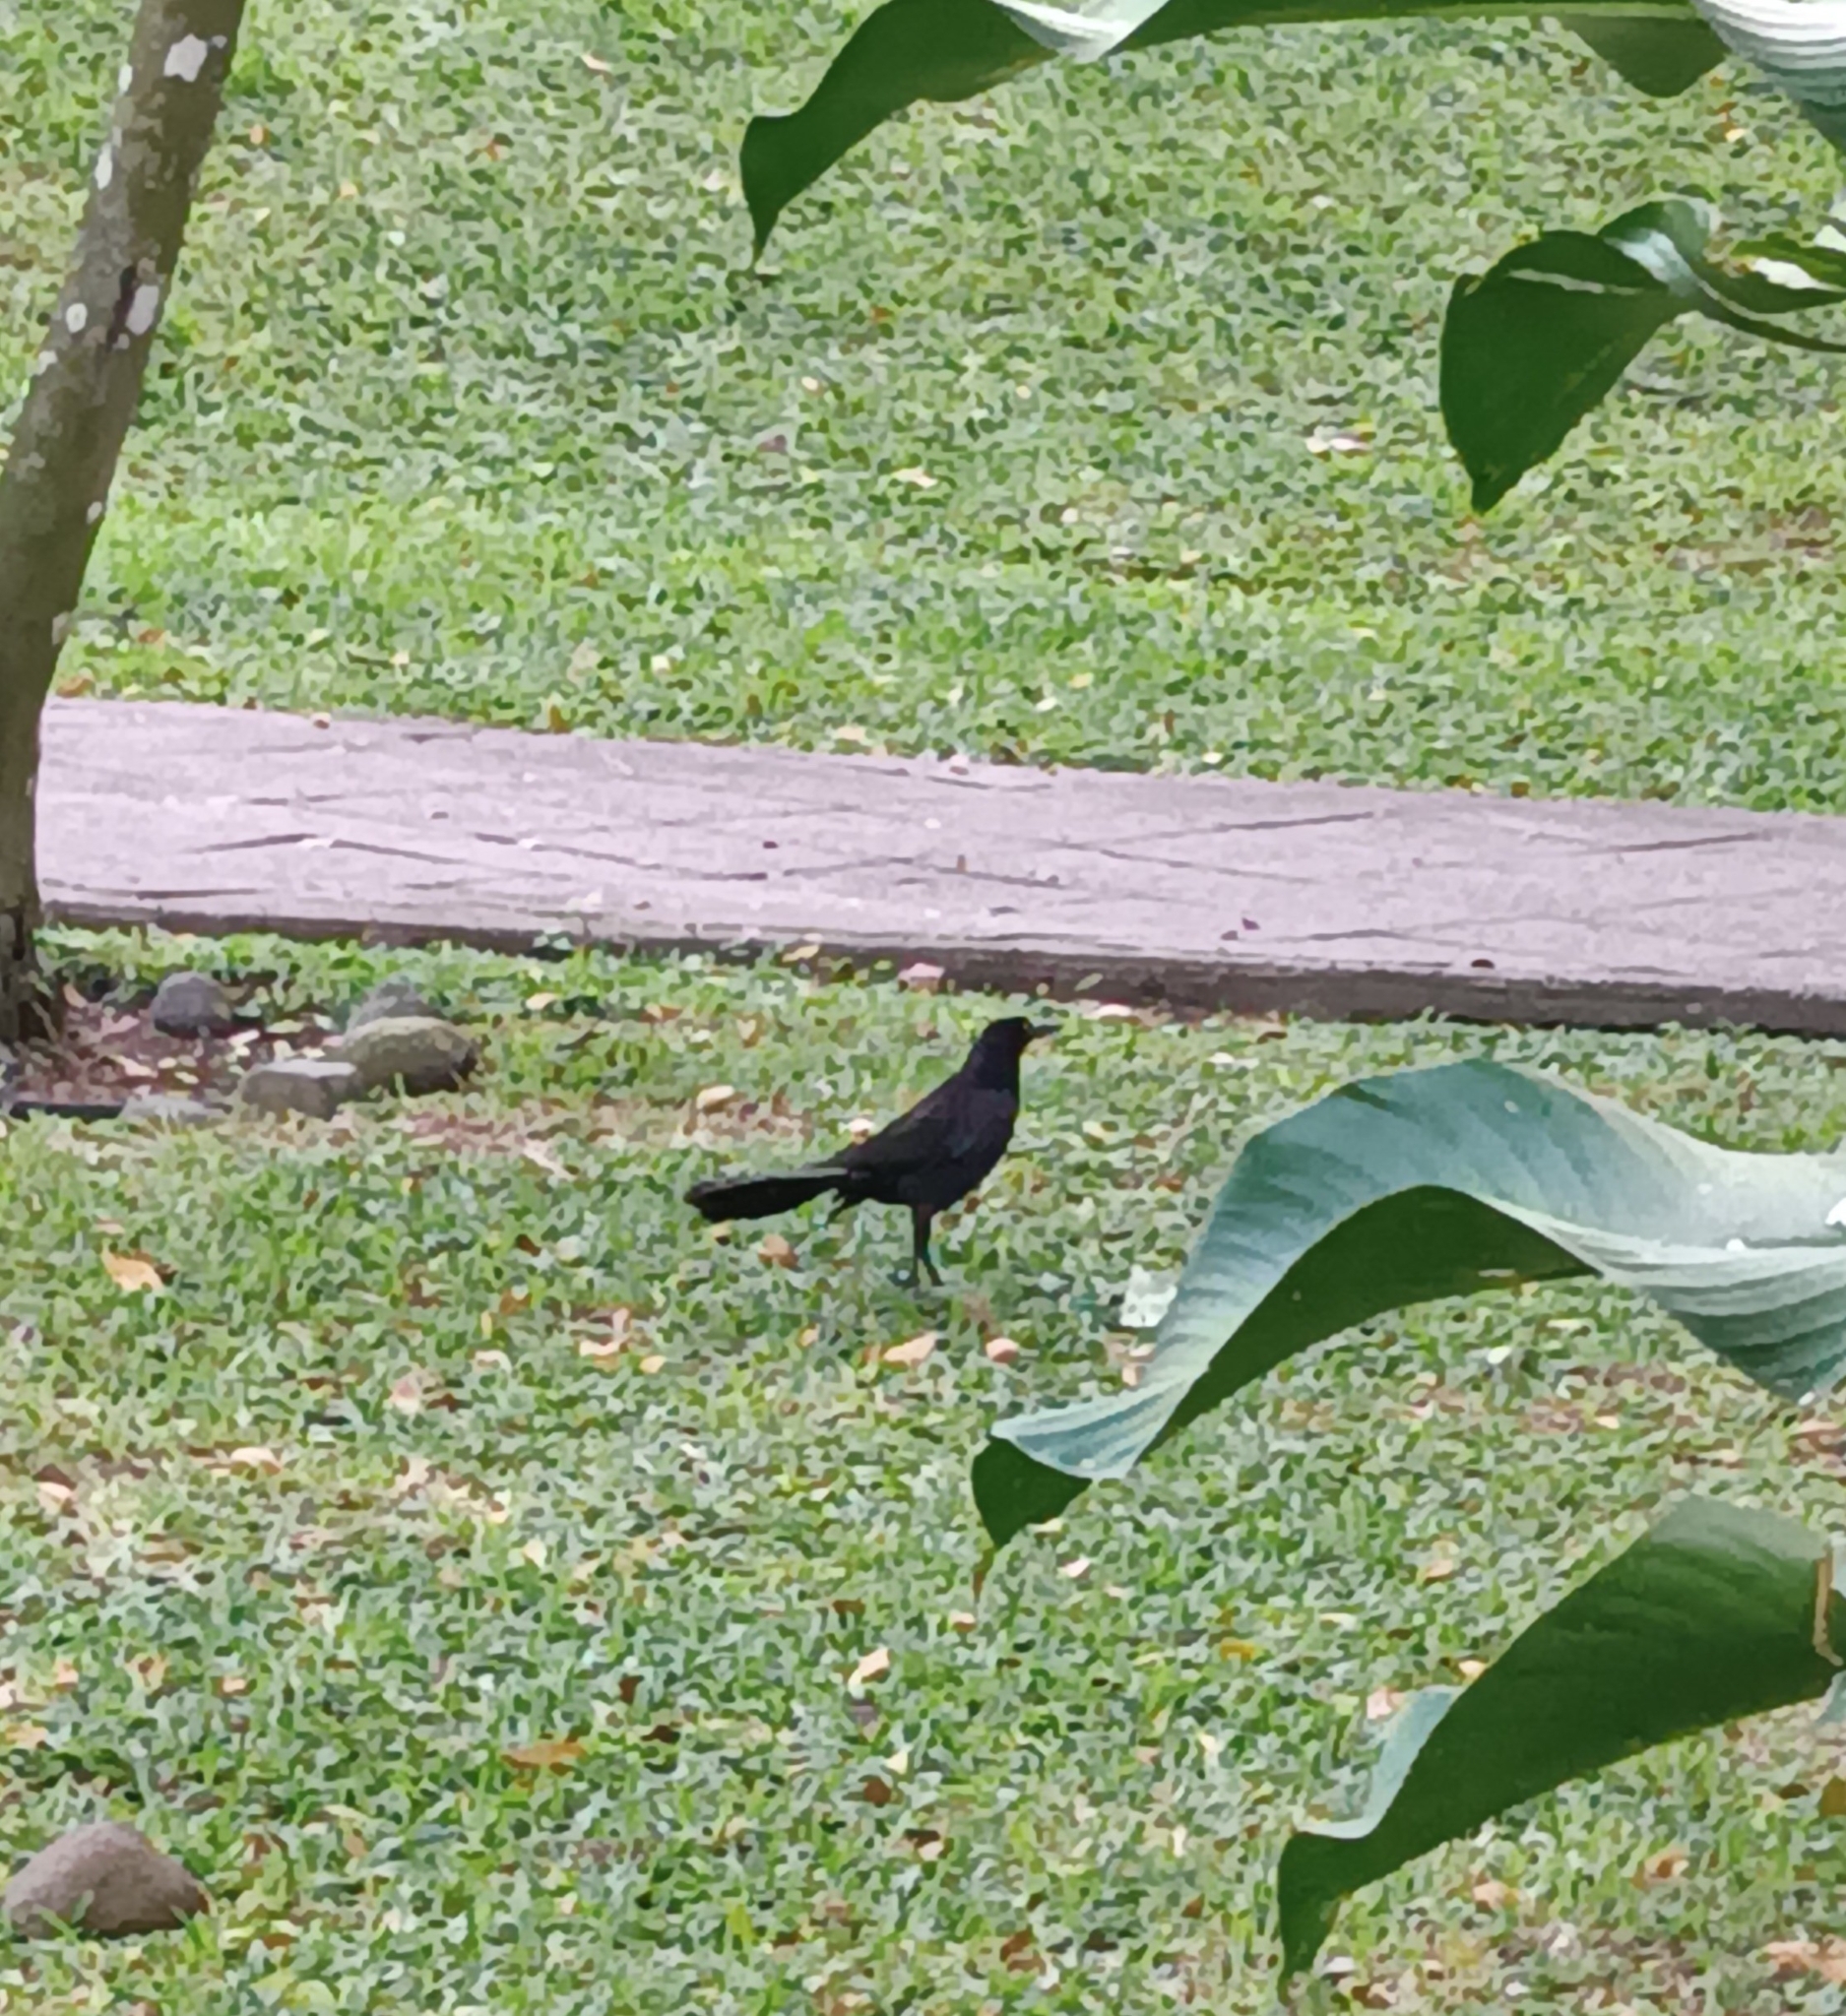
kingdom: Animalia
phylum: Chordata
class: Aves
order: Passeriformes
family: Icteridae
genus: Quiscalus
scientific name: Quiscalus mexicanus
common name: Great-tailed grackle
